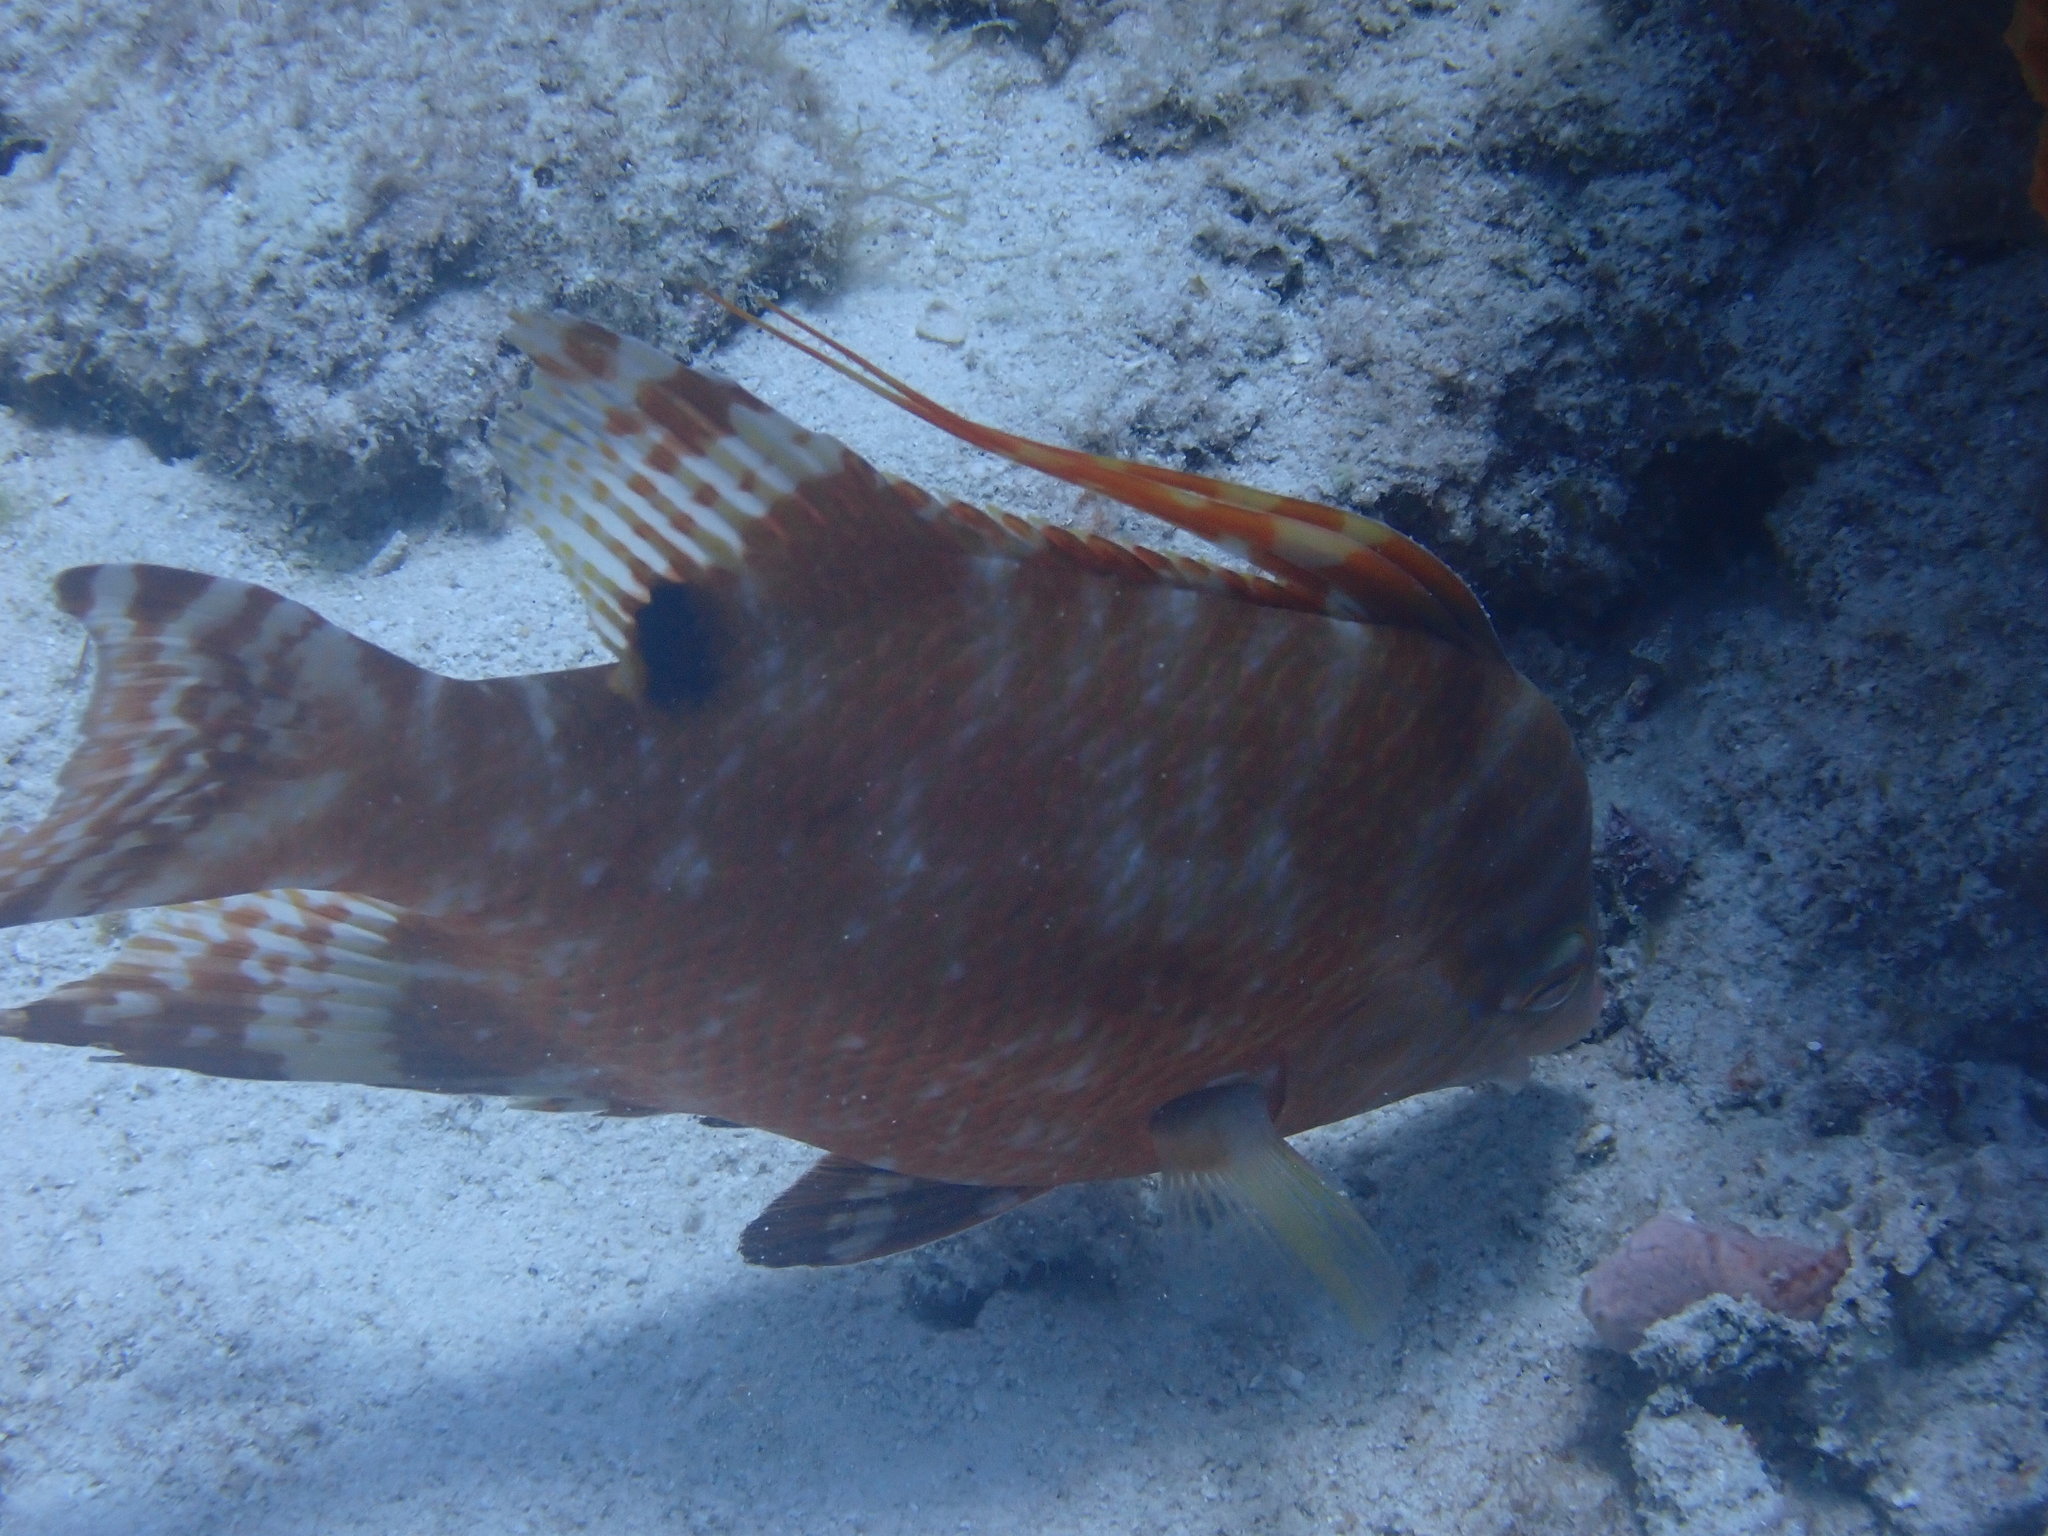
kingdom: Animalia
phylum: Chordata
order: Perciformes
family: Labridae
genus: Lachnolaimus
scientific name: Lachnolaimus maximus
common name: Hogfish
